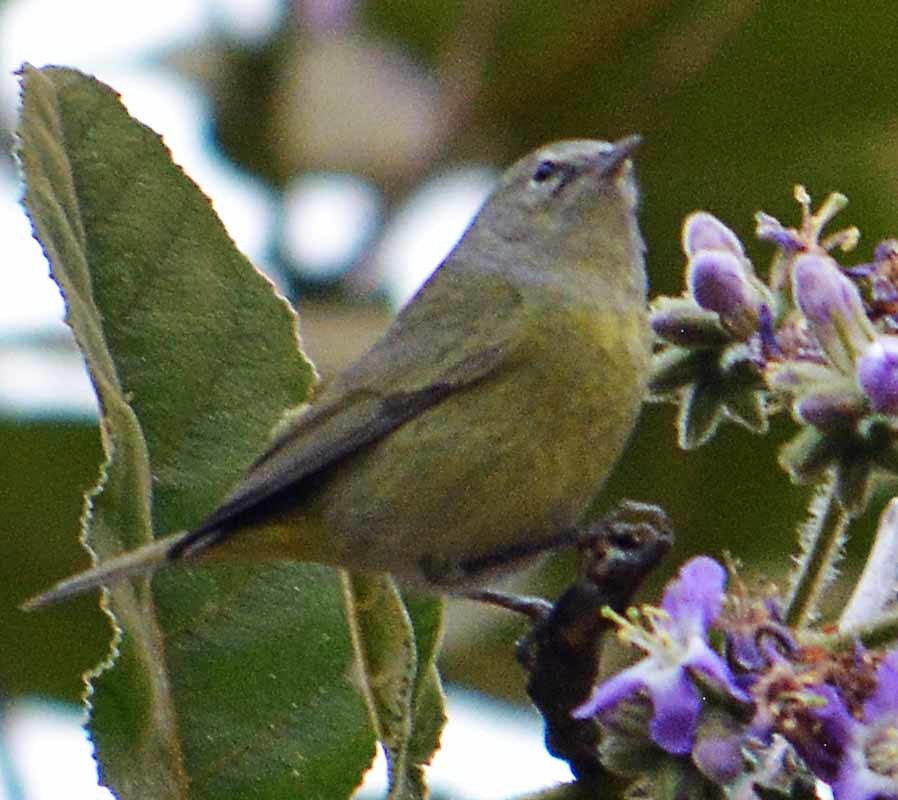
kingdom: Animalia
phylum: Chordata
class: Aves
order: Passeriformes
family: Parulidae
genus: Leiothlypis
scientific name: Leiothlypis celata
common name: Orange-crowned warbler
